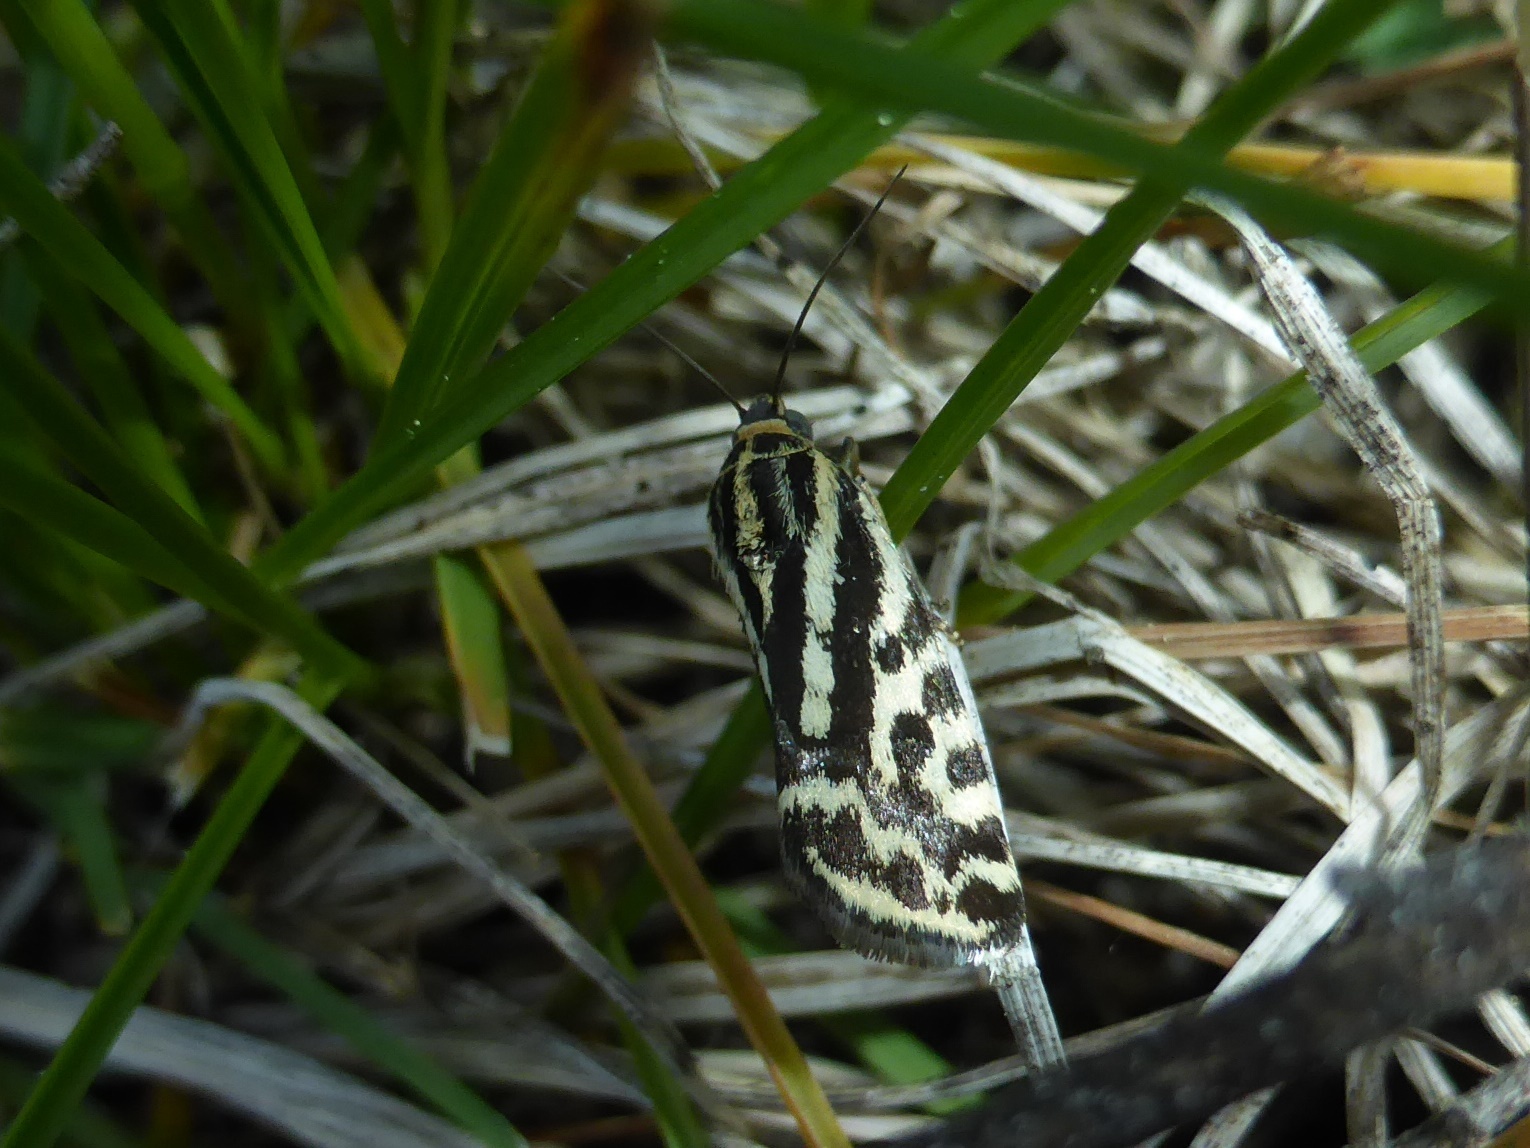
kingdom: Animalia
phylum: Arthropoda
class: Insecta
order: Lepidoptera
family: Noctuidae
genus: Acontia
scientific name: Acontia trabealis
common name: Spotted sulphur
